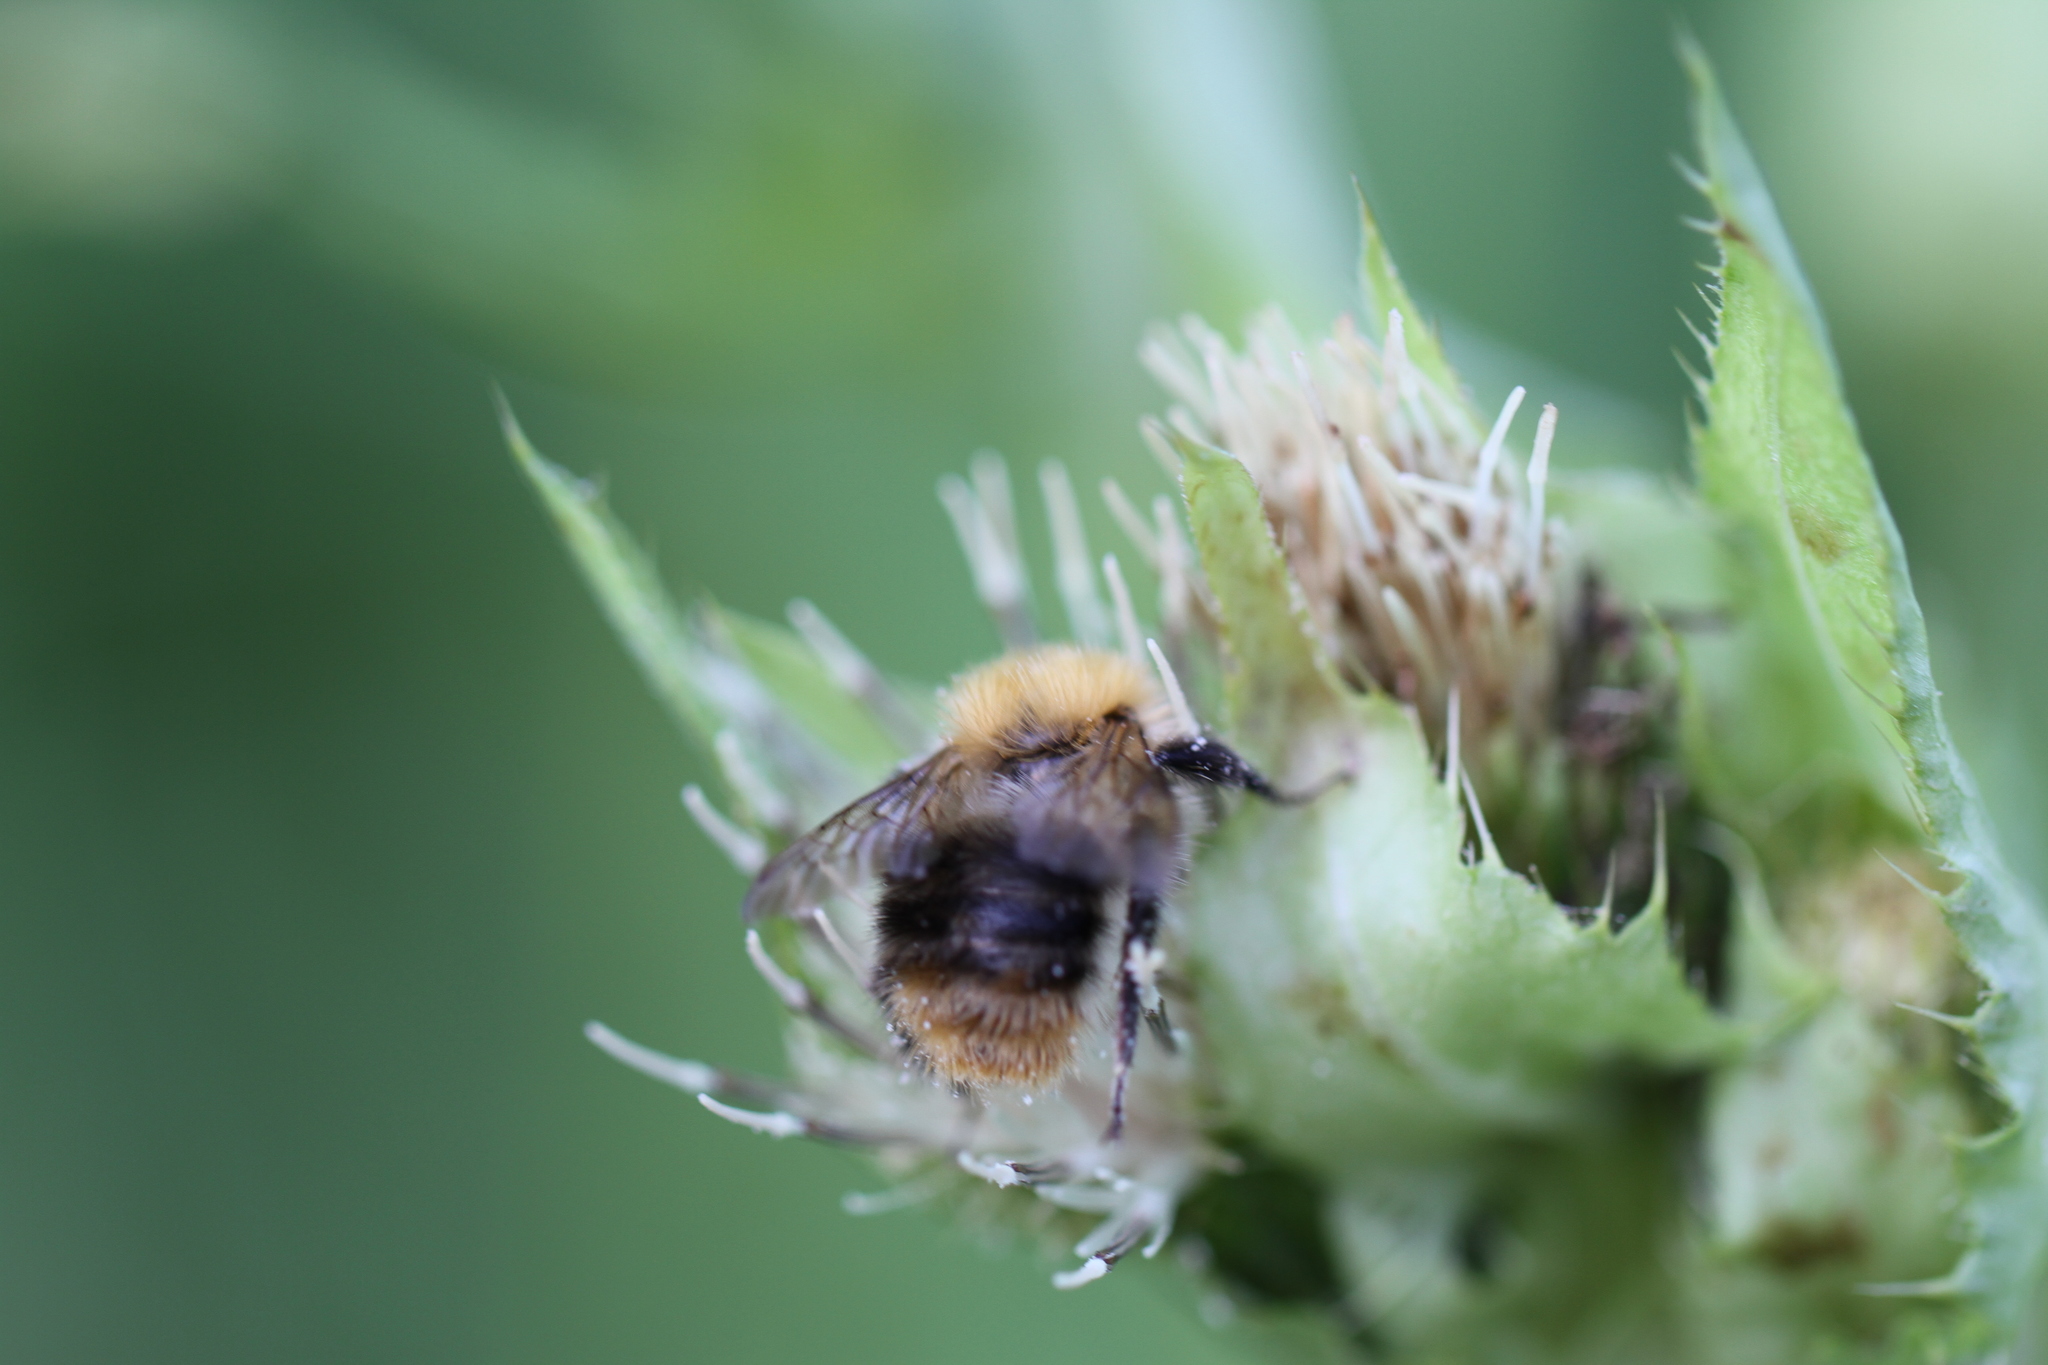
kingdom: Animalia
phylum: Arthropoda
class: Insecta
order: Hymenoptera
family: Apidae
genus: Bombus
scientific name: Bombus pascuorum
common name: Common carder bee
